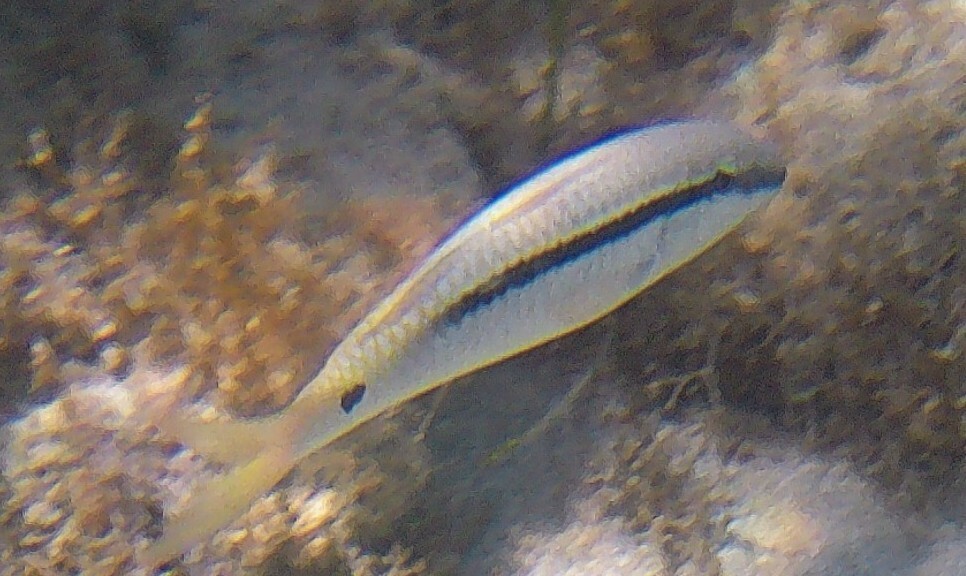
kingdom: Animalia
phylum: Chordata
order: Perciformes
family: Mullidae
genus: Parupeneus
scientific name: Parupeneus forsskali
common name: Red sea goatfish
